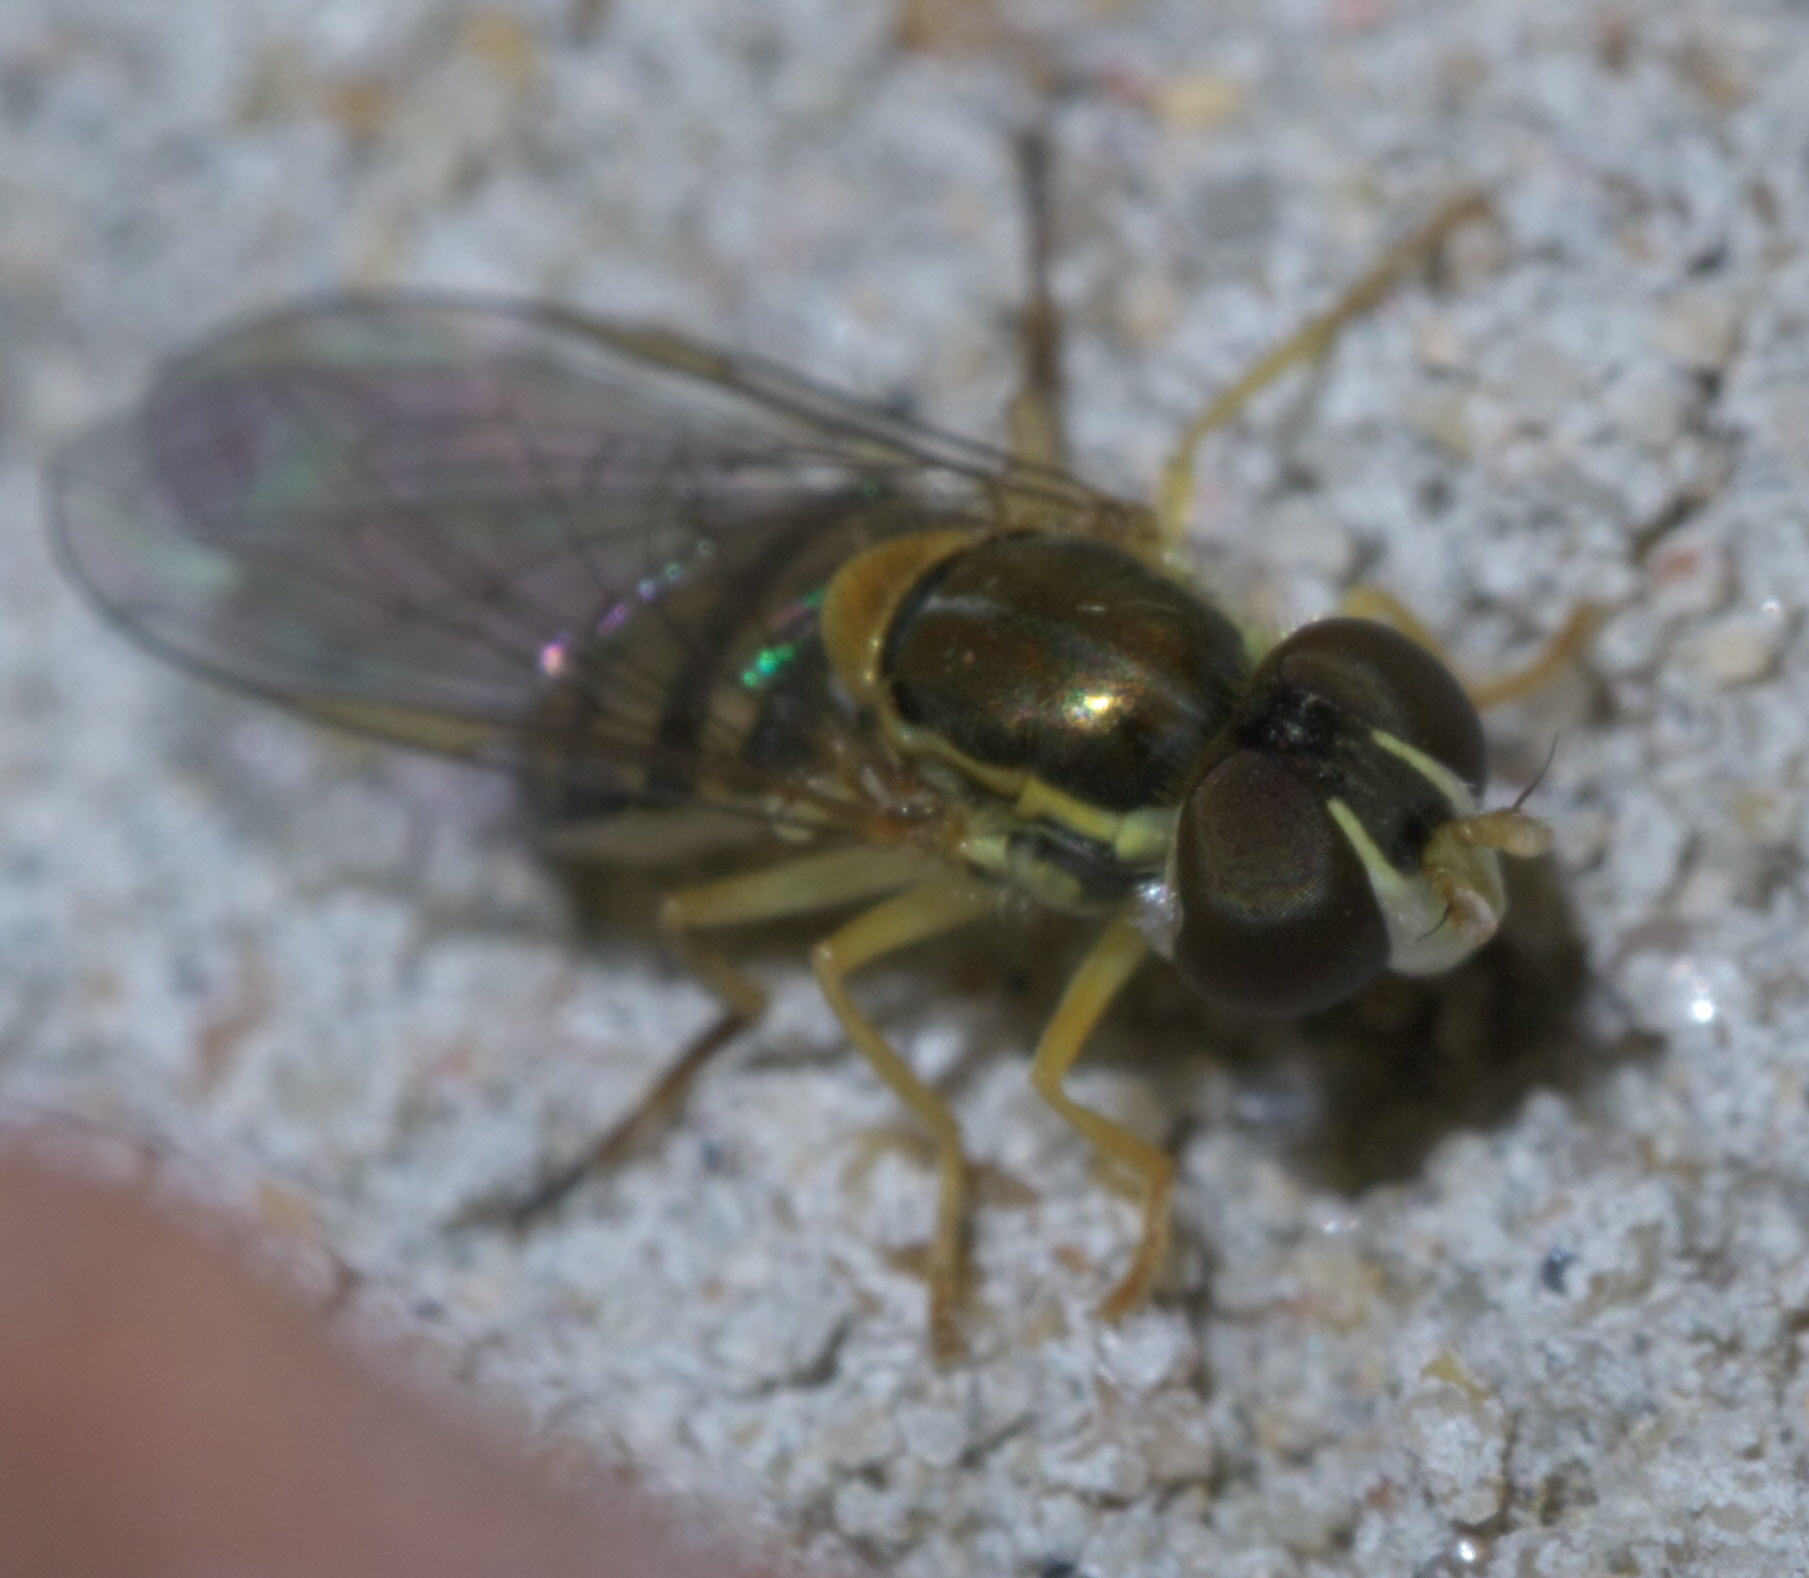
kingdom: Animalia
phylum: Arthropoda
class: Insecta
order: Diptera
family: Syrphidae
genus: Toxomerus
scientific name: Toxomerus marginatus
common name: Syrphid fly
